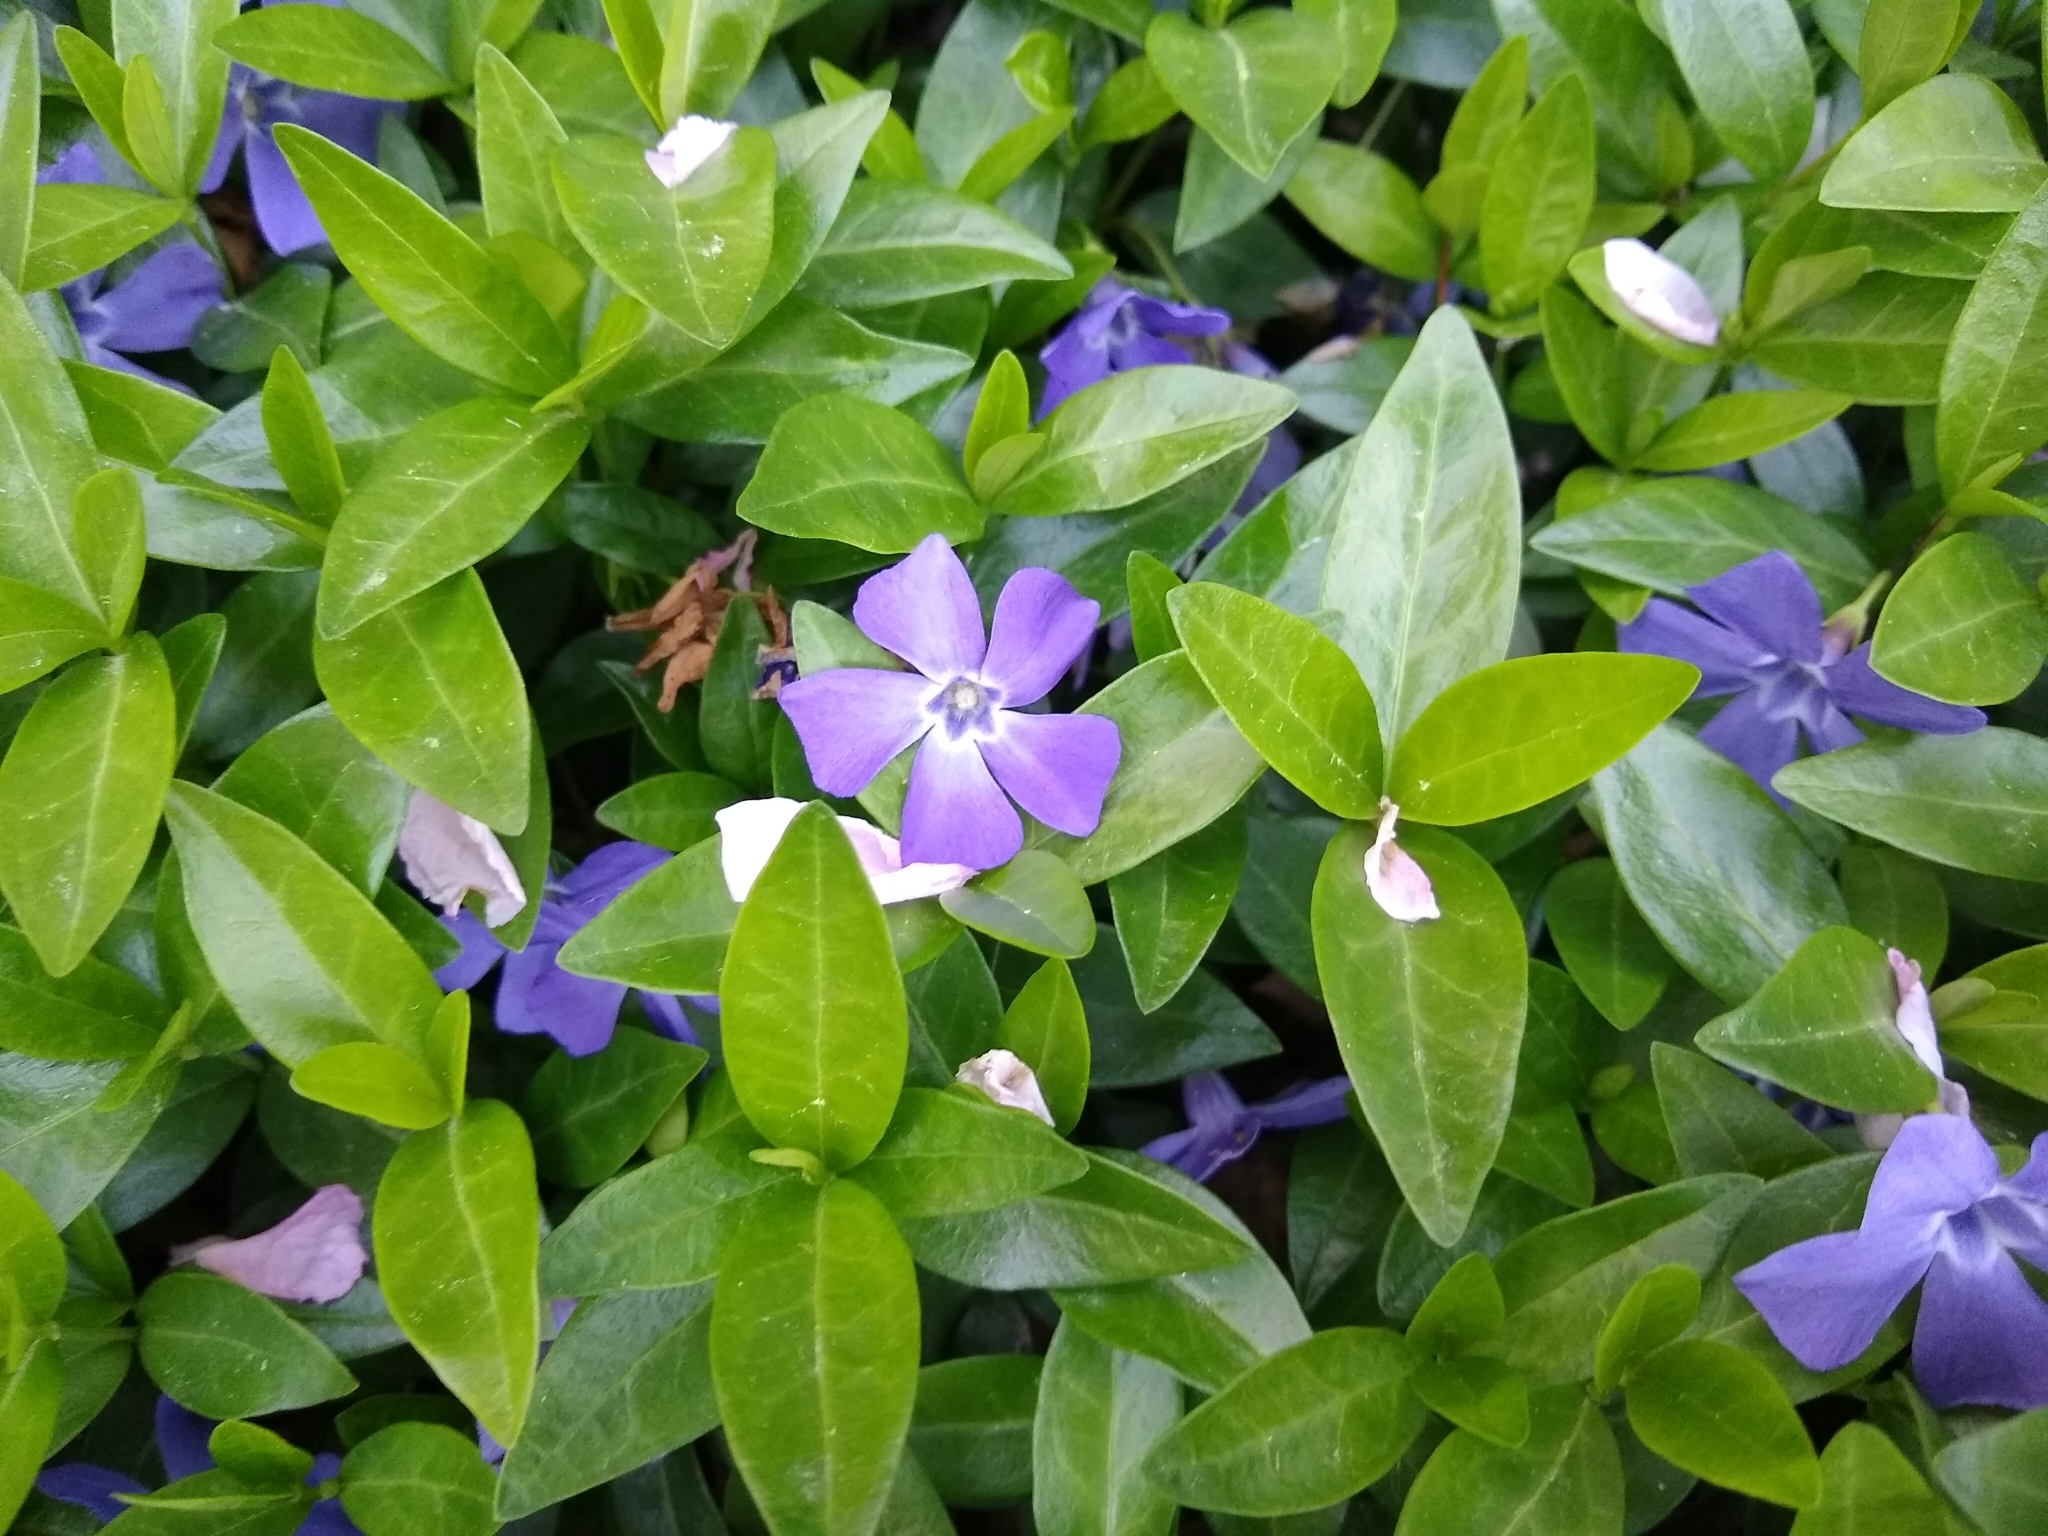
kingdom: Plantae
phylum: Tracheophyta
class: Magnoliopsida
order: Gentianales
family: Apocynaceae
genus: Vinca
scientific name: Vinca minor
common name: Lesser periwinkle
